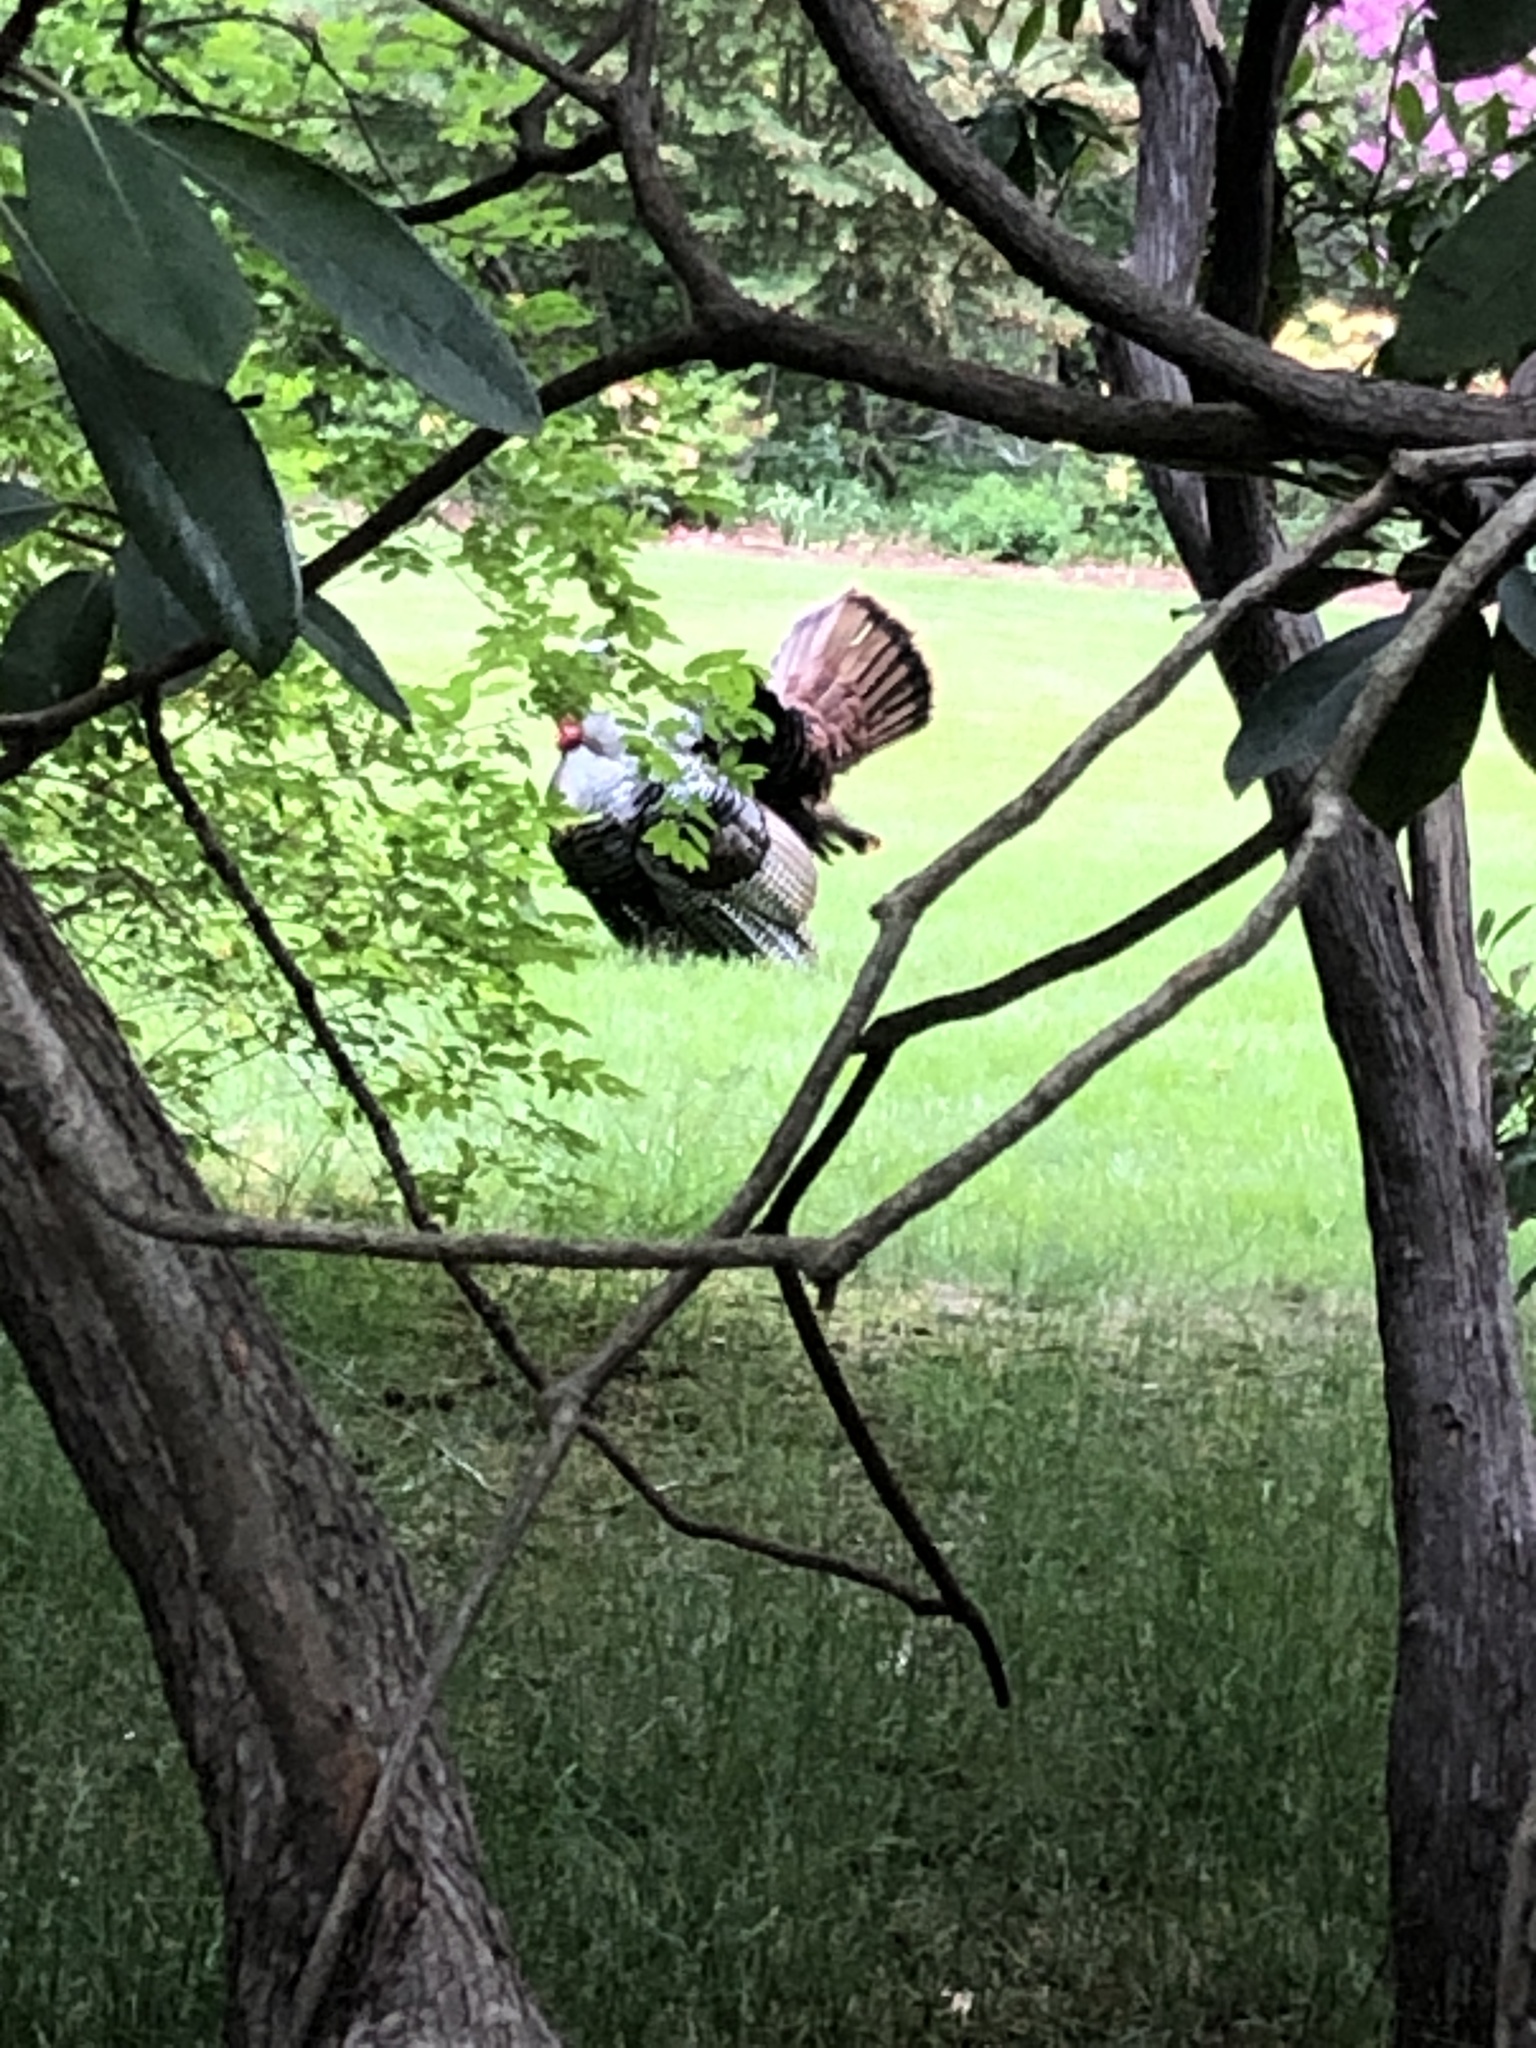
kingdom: Animalia
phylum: Chordata
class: Aves
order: Galliformes
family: Phasianidae
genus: Meleagris
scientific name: Meleagris gallopavo
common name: Wild turkey
